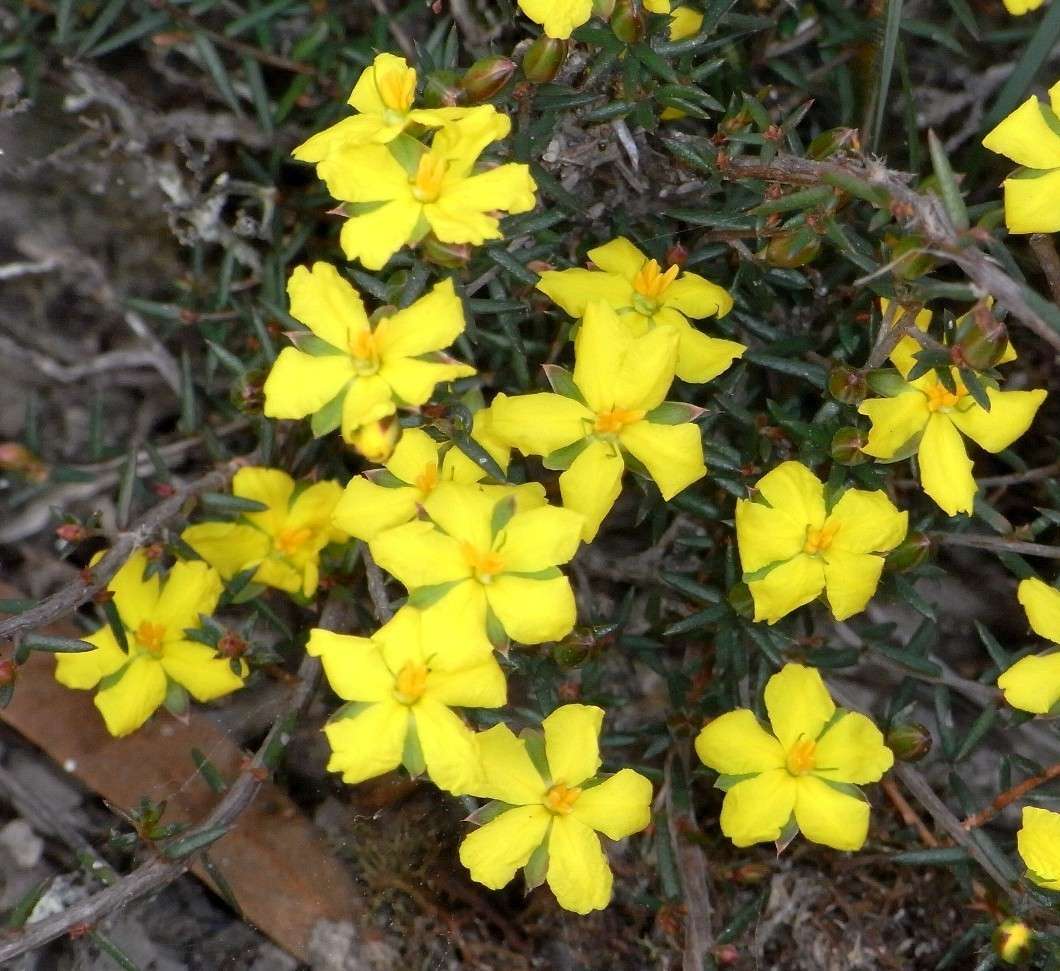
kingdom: Plantae
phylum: Tracheophyta
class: Magnoliopsida
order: Dilleniales
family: Dilleniaceae
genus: Hibbertia
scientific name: Hibbertia exutiacies
